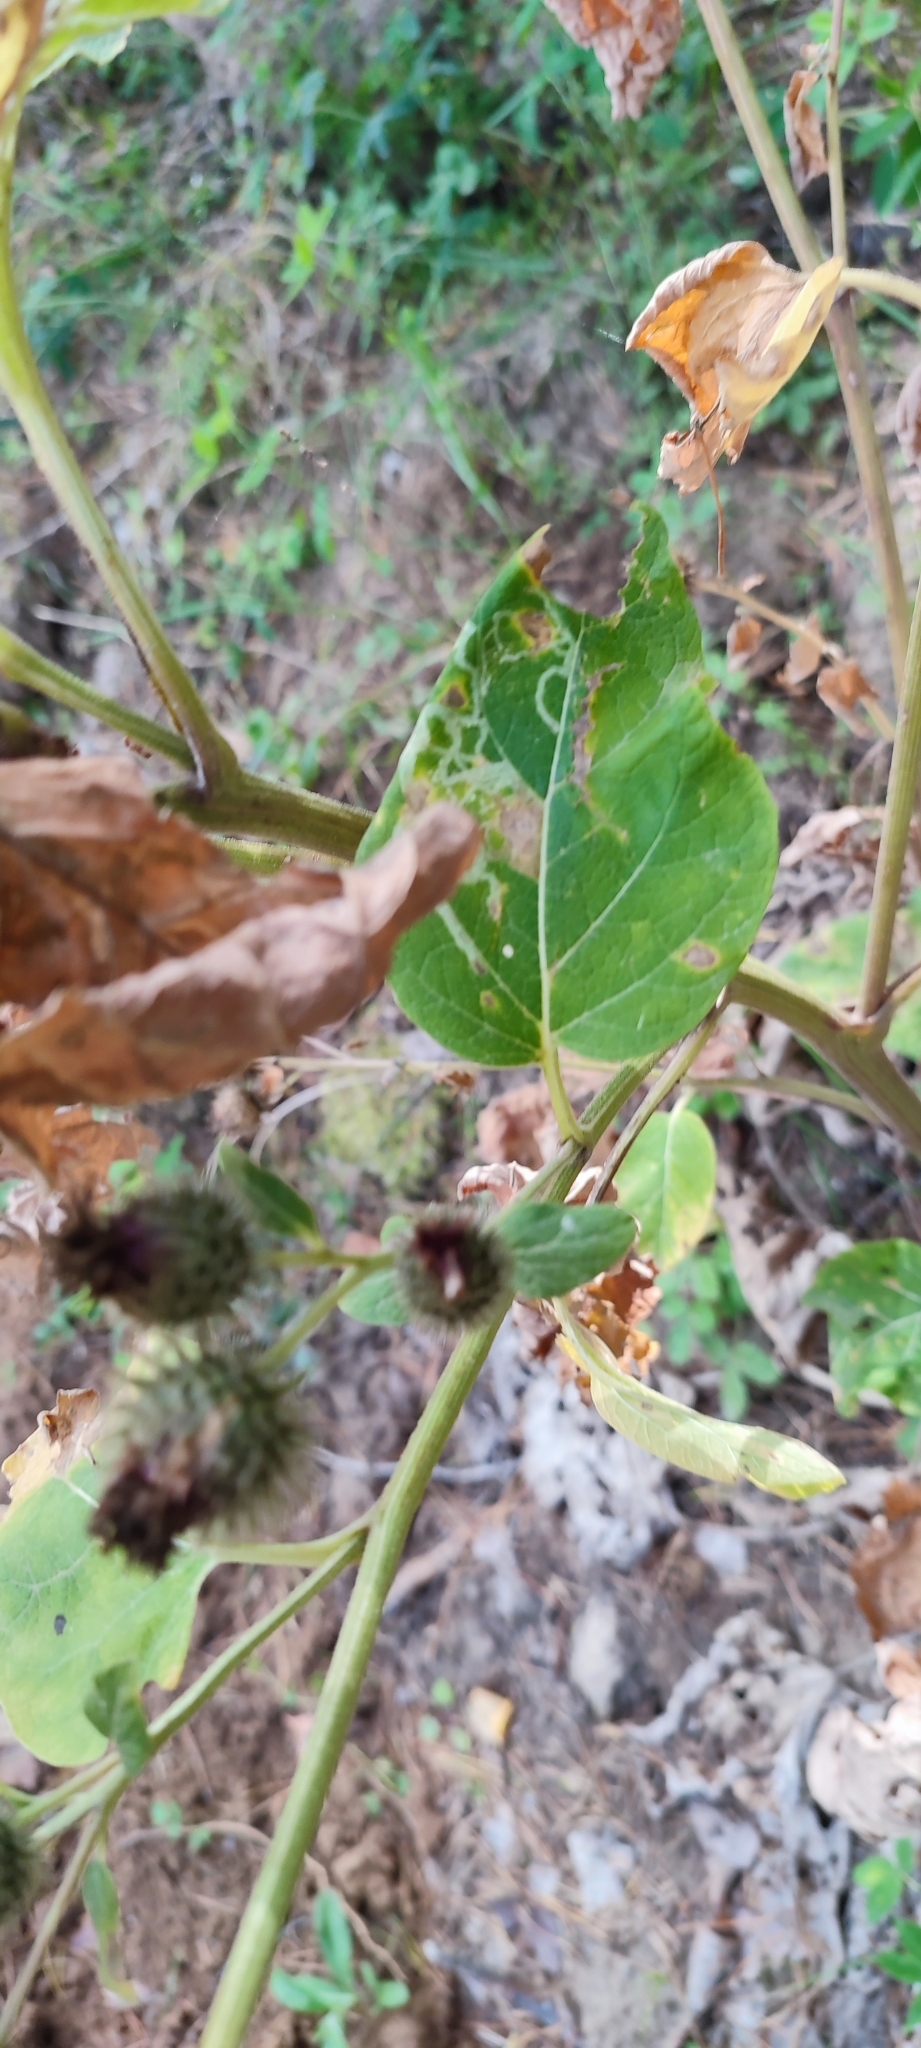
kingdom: Plantae
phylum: Tracheophyta
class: Magnoliopsida
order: Asterales
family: Asteraceae
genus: Arctium
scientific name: Arctium tomentosum
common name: Woolly burdock
